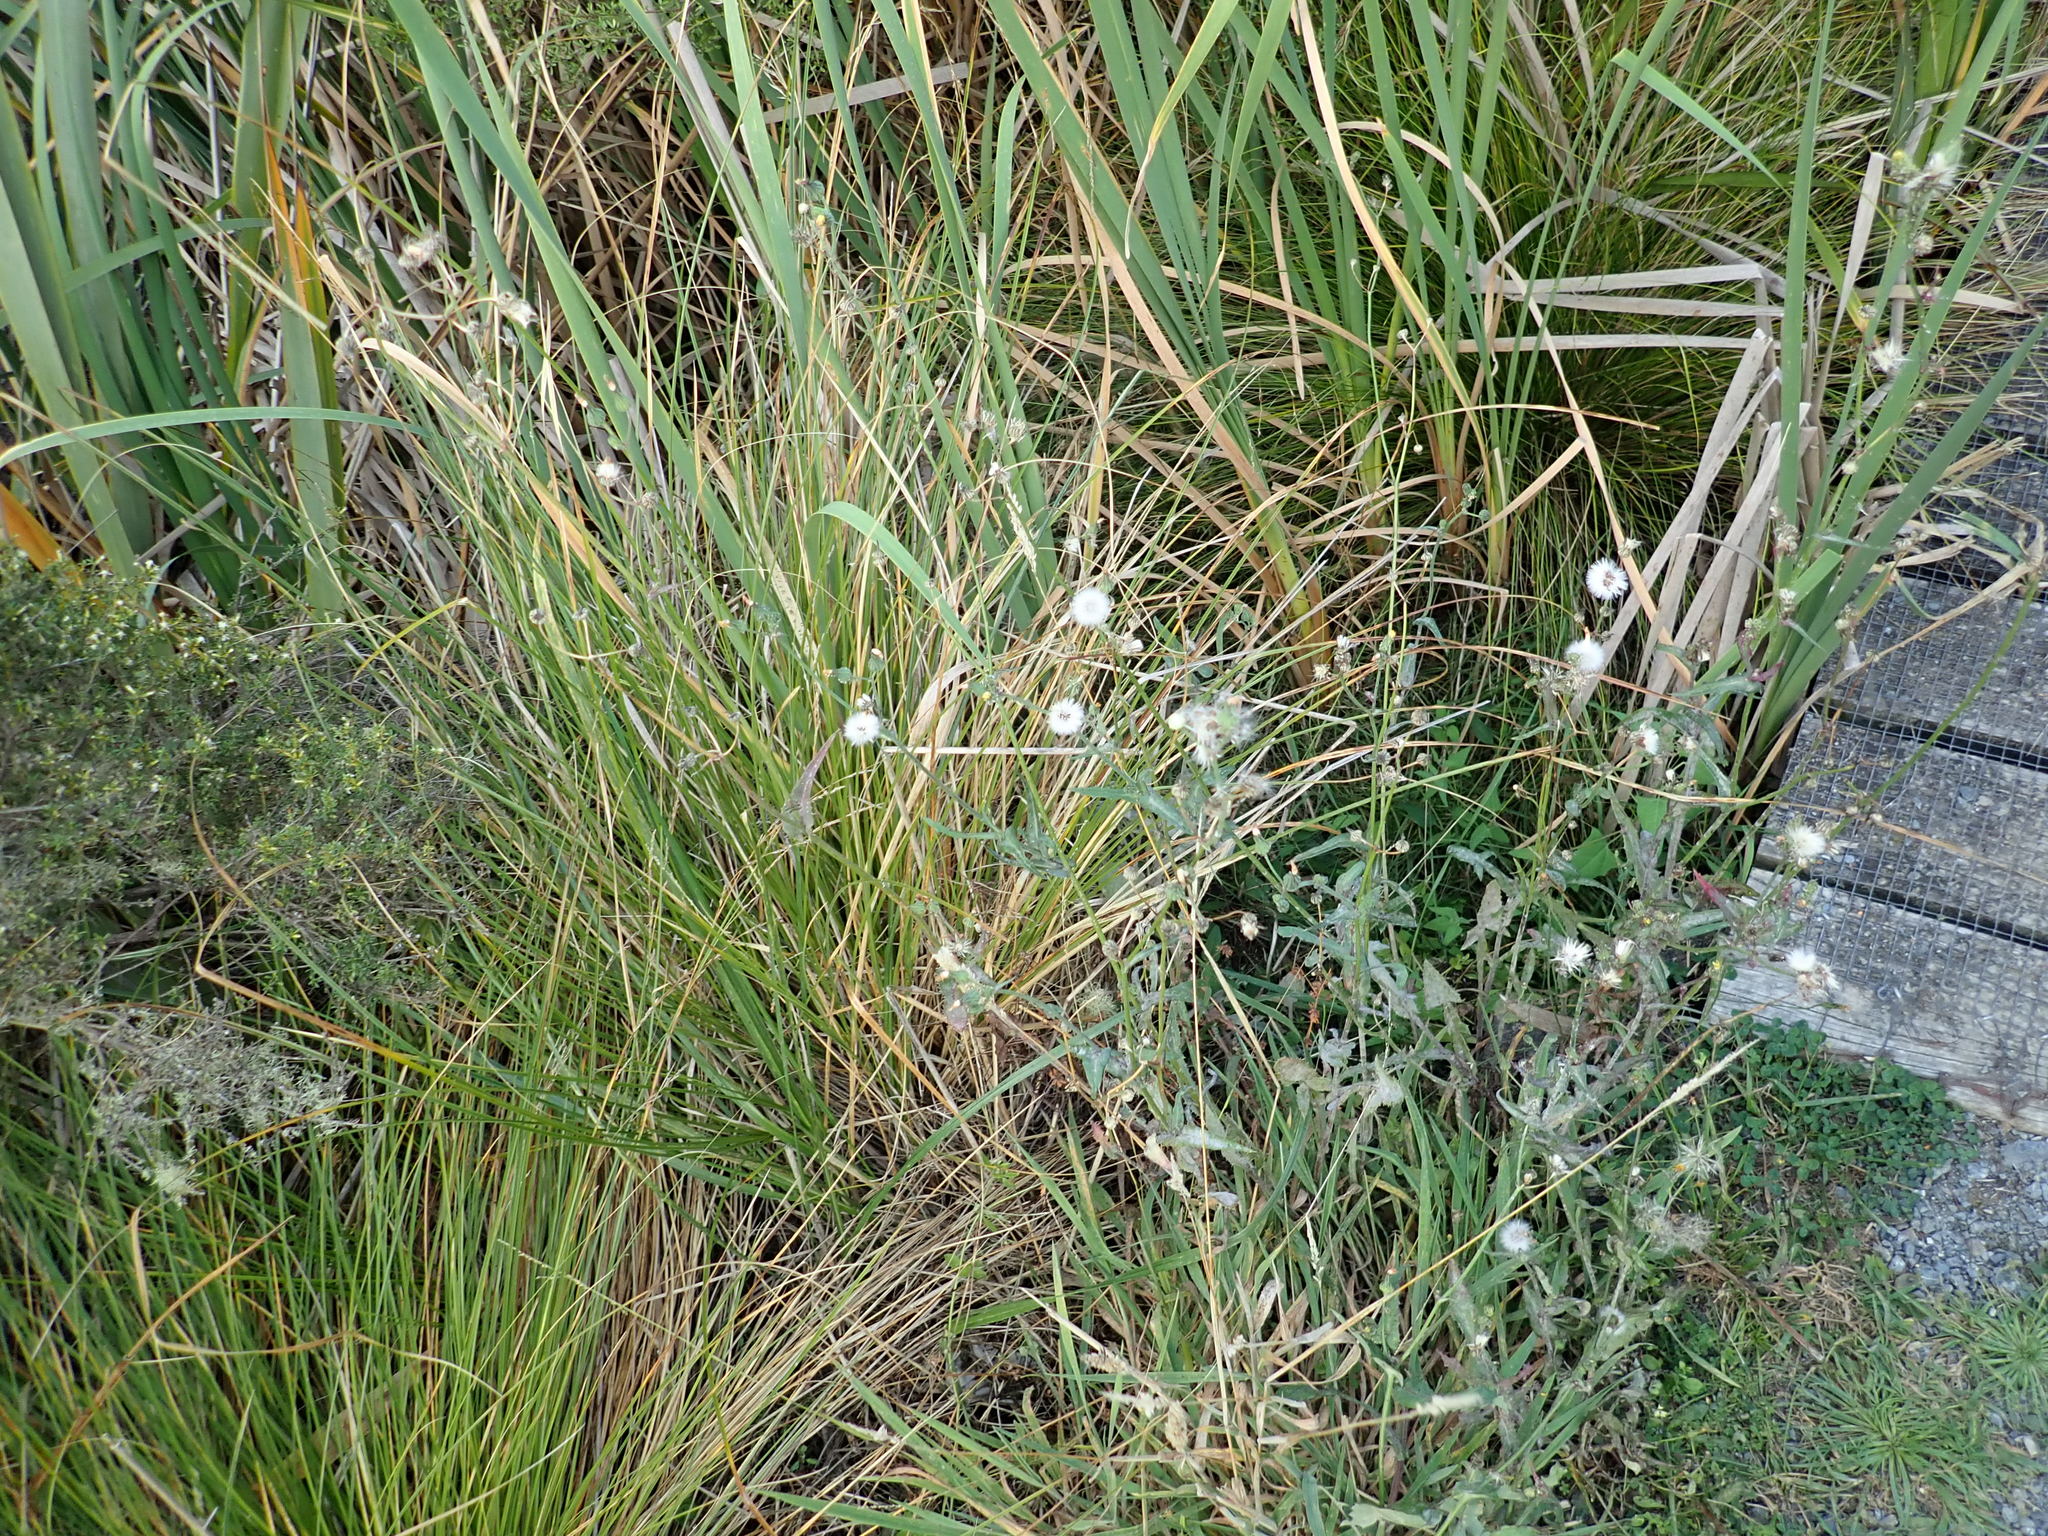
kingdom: Plantae
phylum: Tracheophyta
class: Magnoliopsida
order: Asterales
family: Asteraceae
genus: Sonchus
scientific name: Sonchus oleraceus
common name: Common sowthistle
